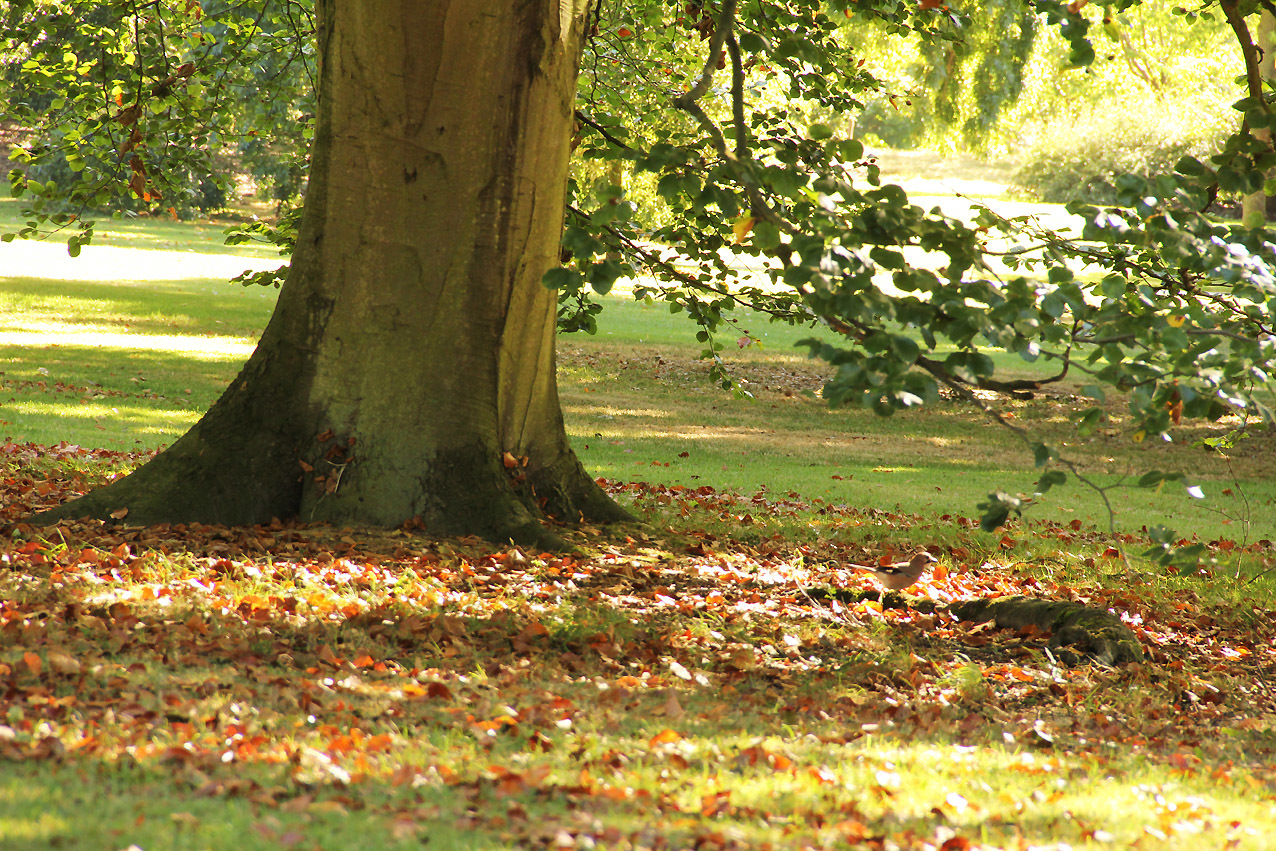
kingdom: Animalia
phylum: Chordata
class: Aves
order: Passeriformes
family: Corvidae
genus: Garrulus
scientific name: Garrulus glandarius
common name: Eurasian jay
